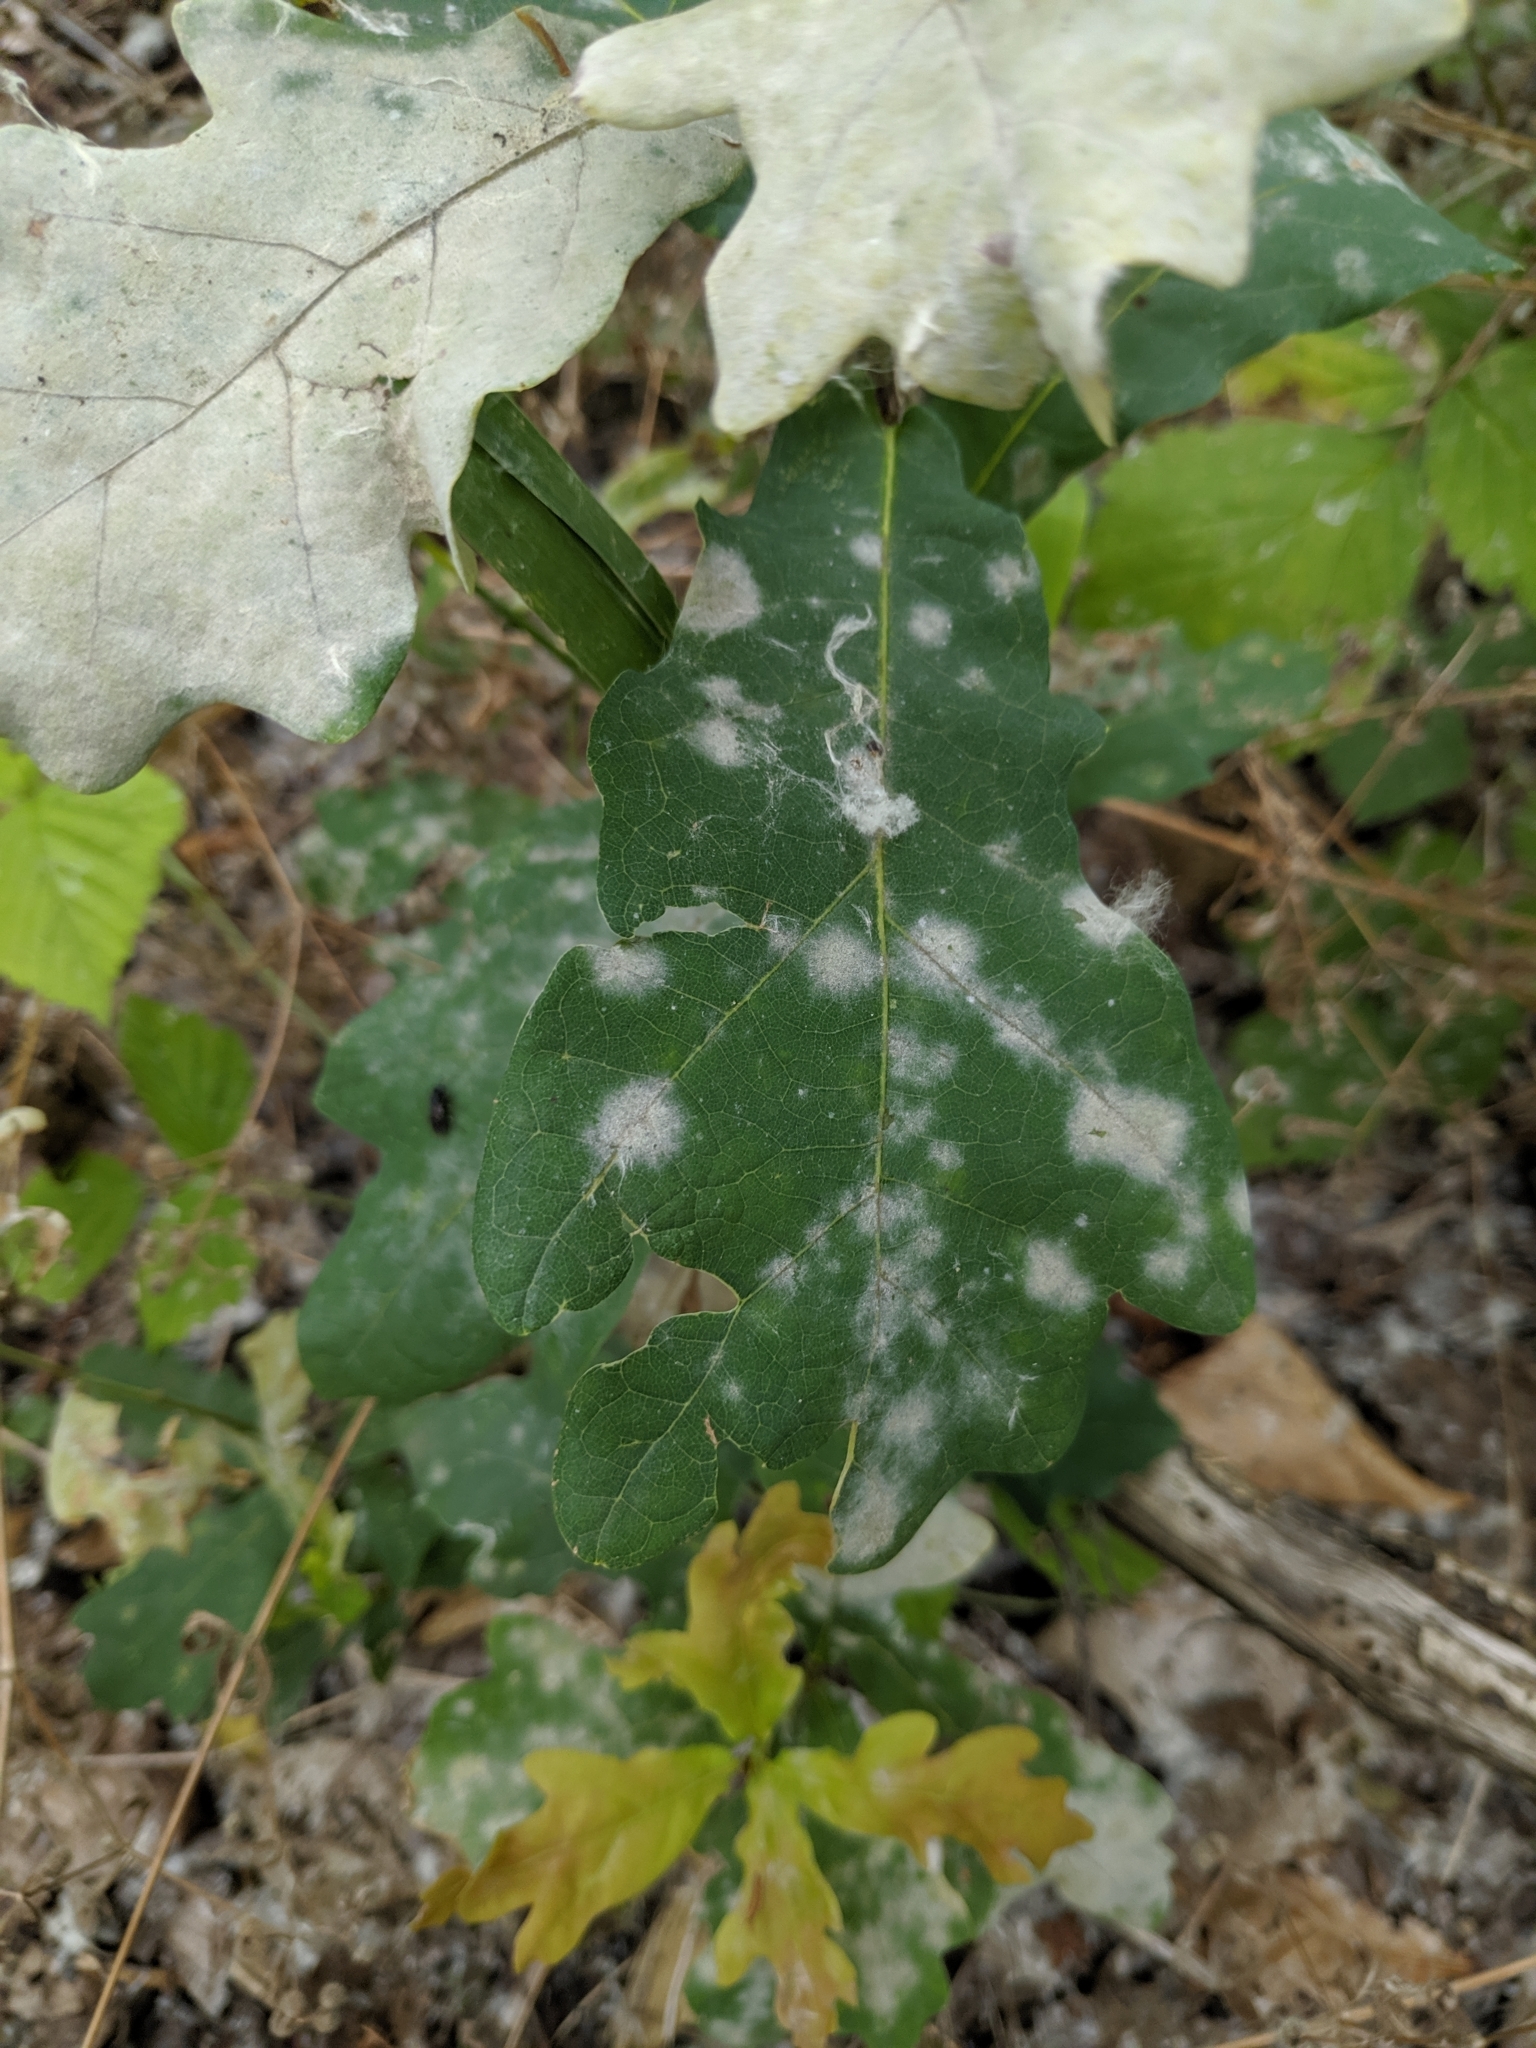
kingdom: Fungi
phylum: Ascomycota
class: Leotiomycetes
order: Helotiales
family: Erysiphaceae
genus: Erysiphe
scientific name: Erysiphe
